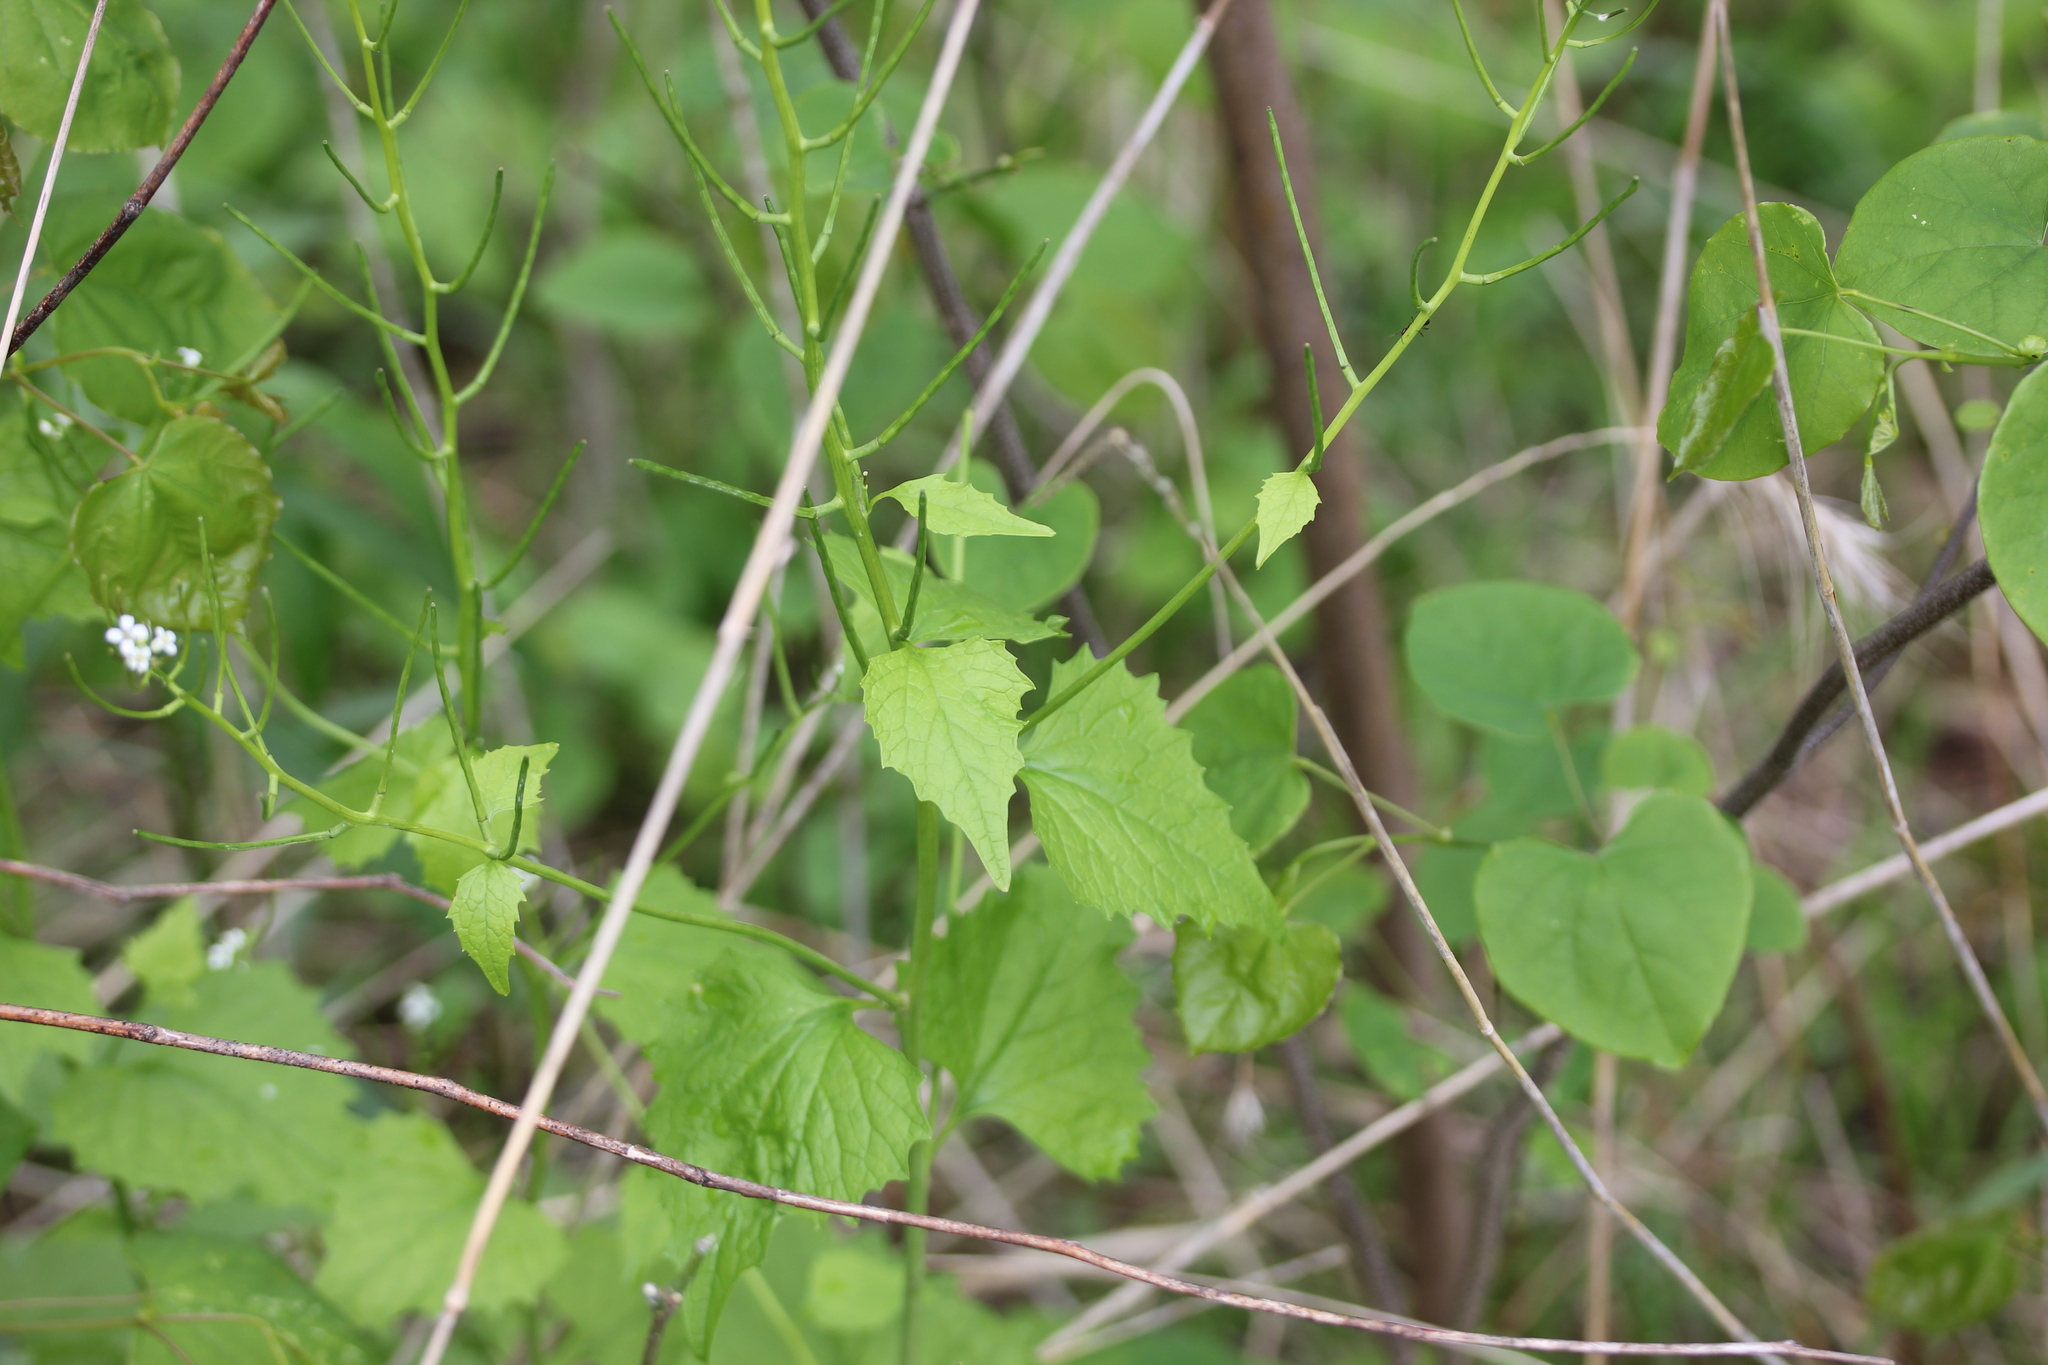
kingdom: Plantae
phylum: Tracheophyta
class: Magnoliopsida
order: Brassicales
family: Brassicaceae
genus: Alliaria
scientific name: Alliaria petiolata
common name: Garlic mustard
